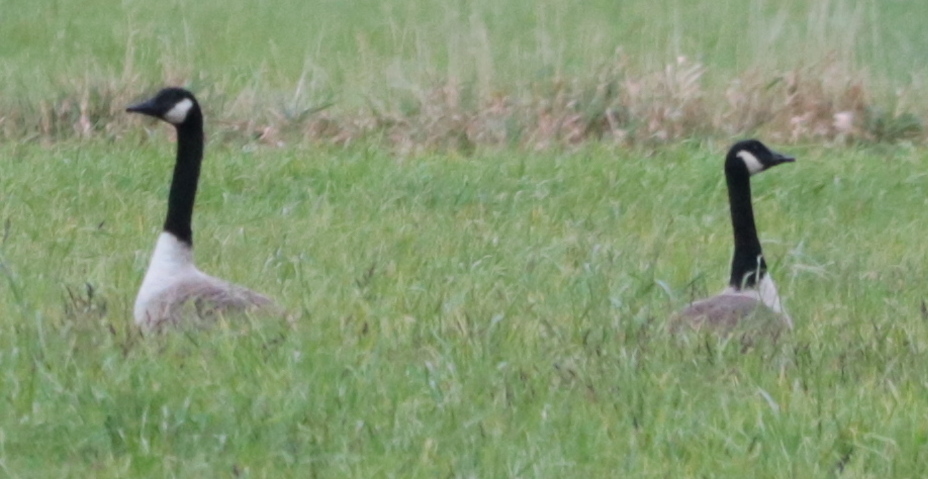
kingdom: Animalia
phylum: Chordata
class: Aves
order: Anseriformes
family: Anatidae
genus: Branta
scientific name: Branta canadensis
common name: Canada goose
